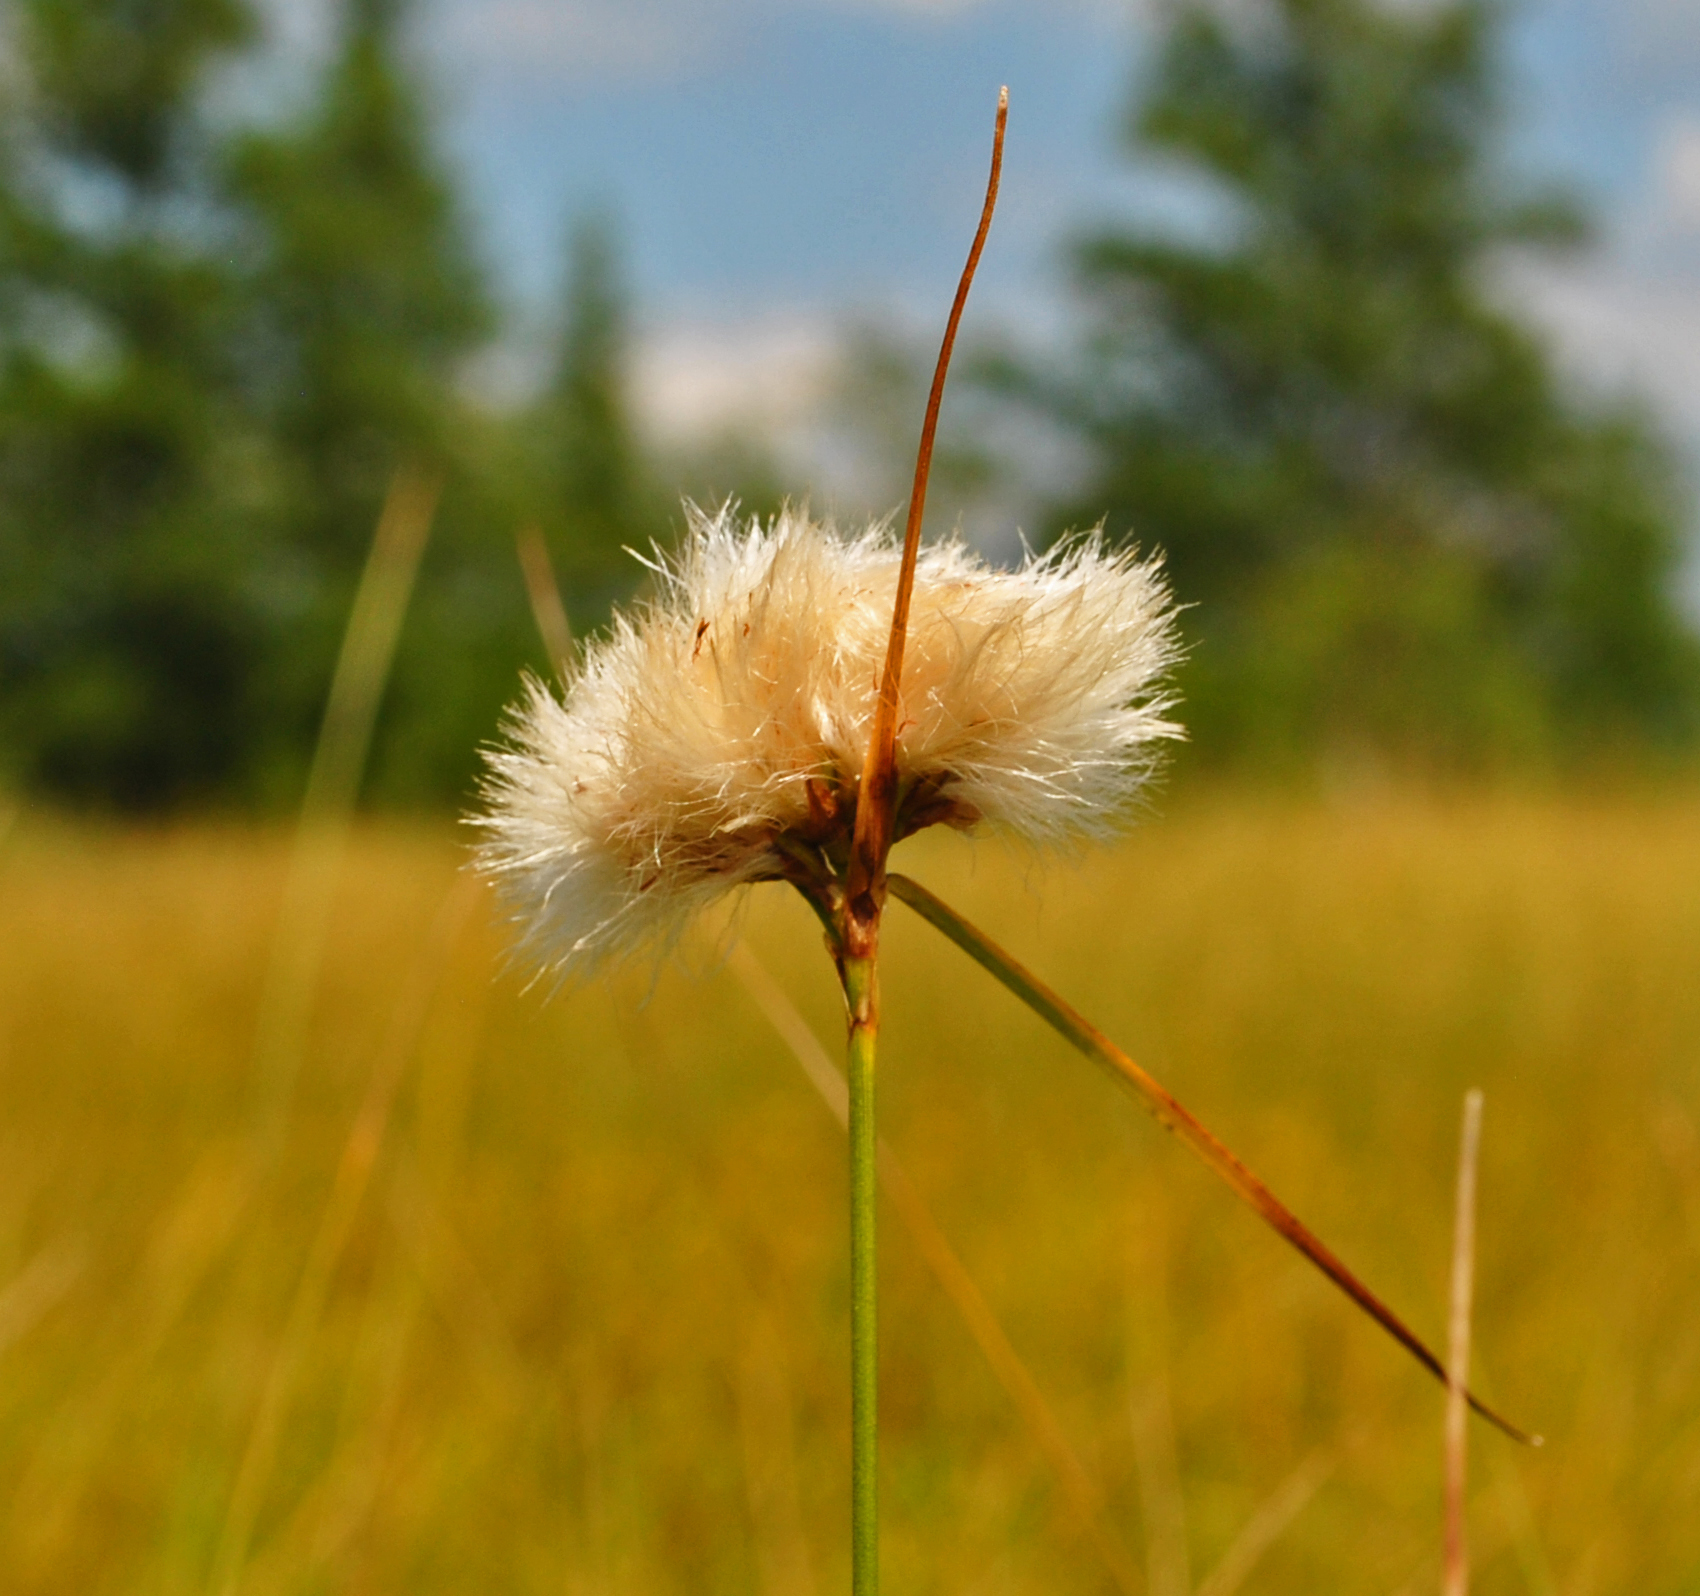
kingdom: Plantae
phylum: Tracheophyta
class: Liliopsida
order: Poales
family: Cyperaceae
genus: Eriophorum
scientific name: Eriophorum virginicum
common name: Tawny cottongrass
